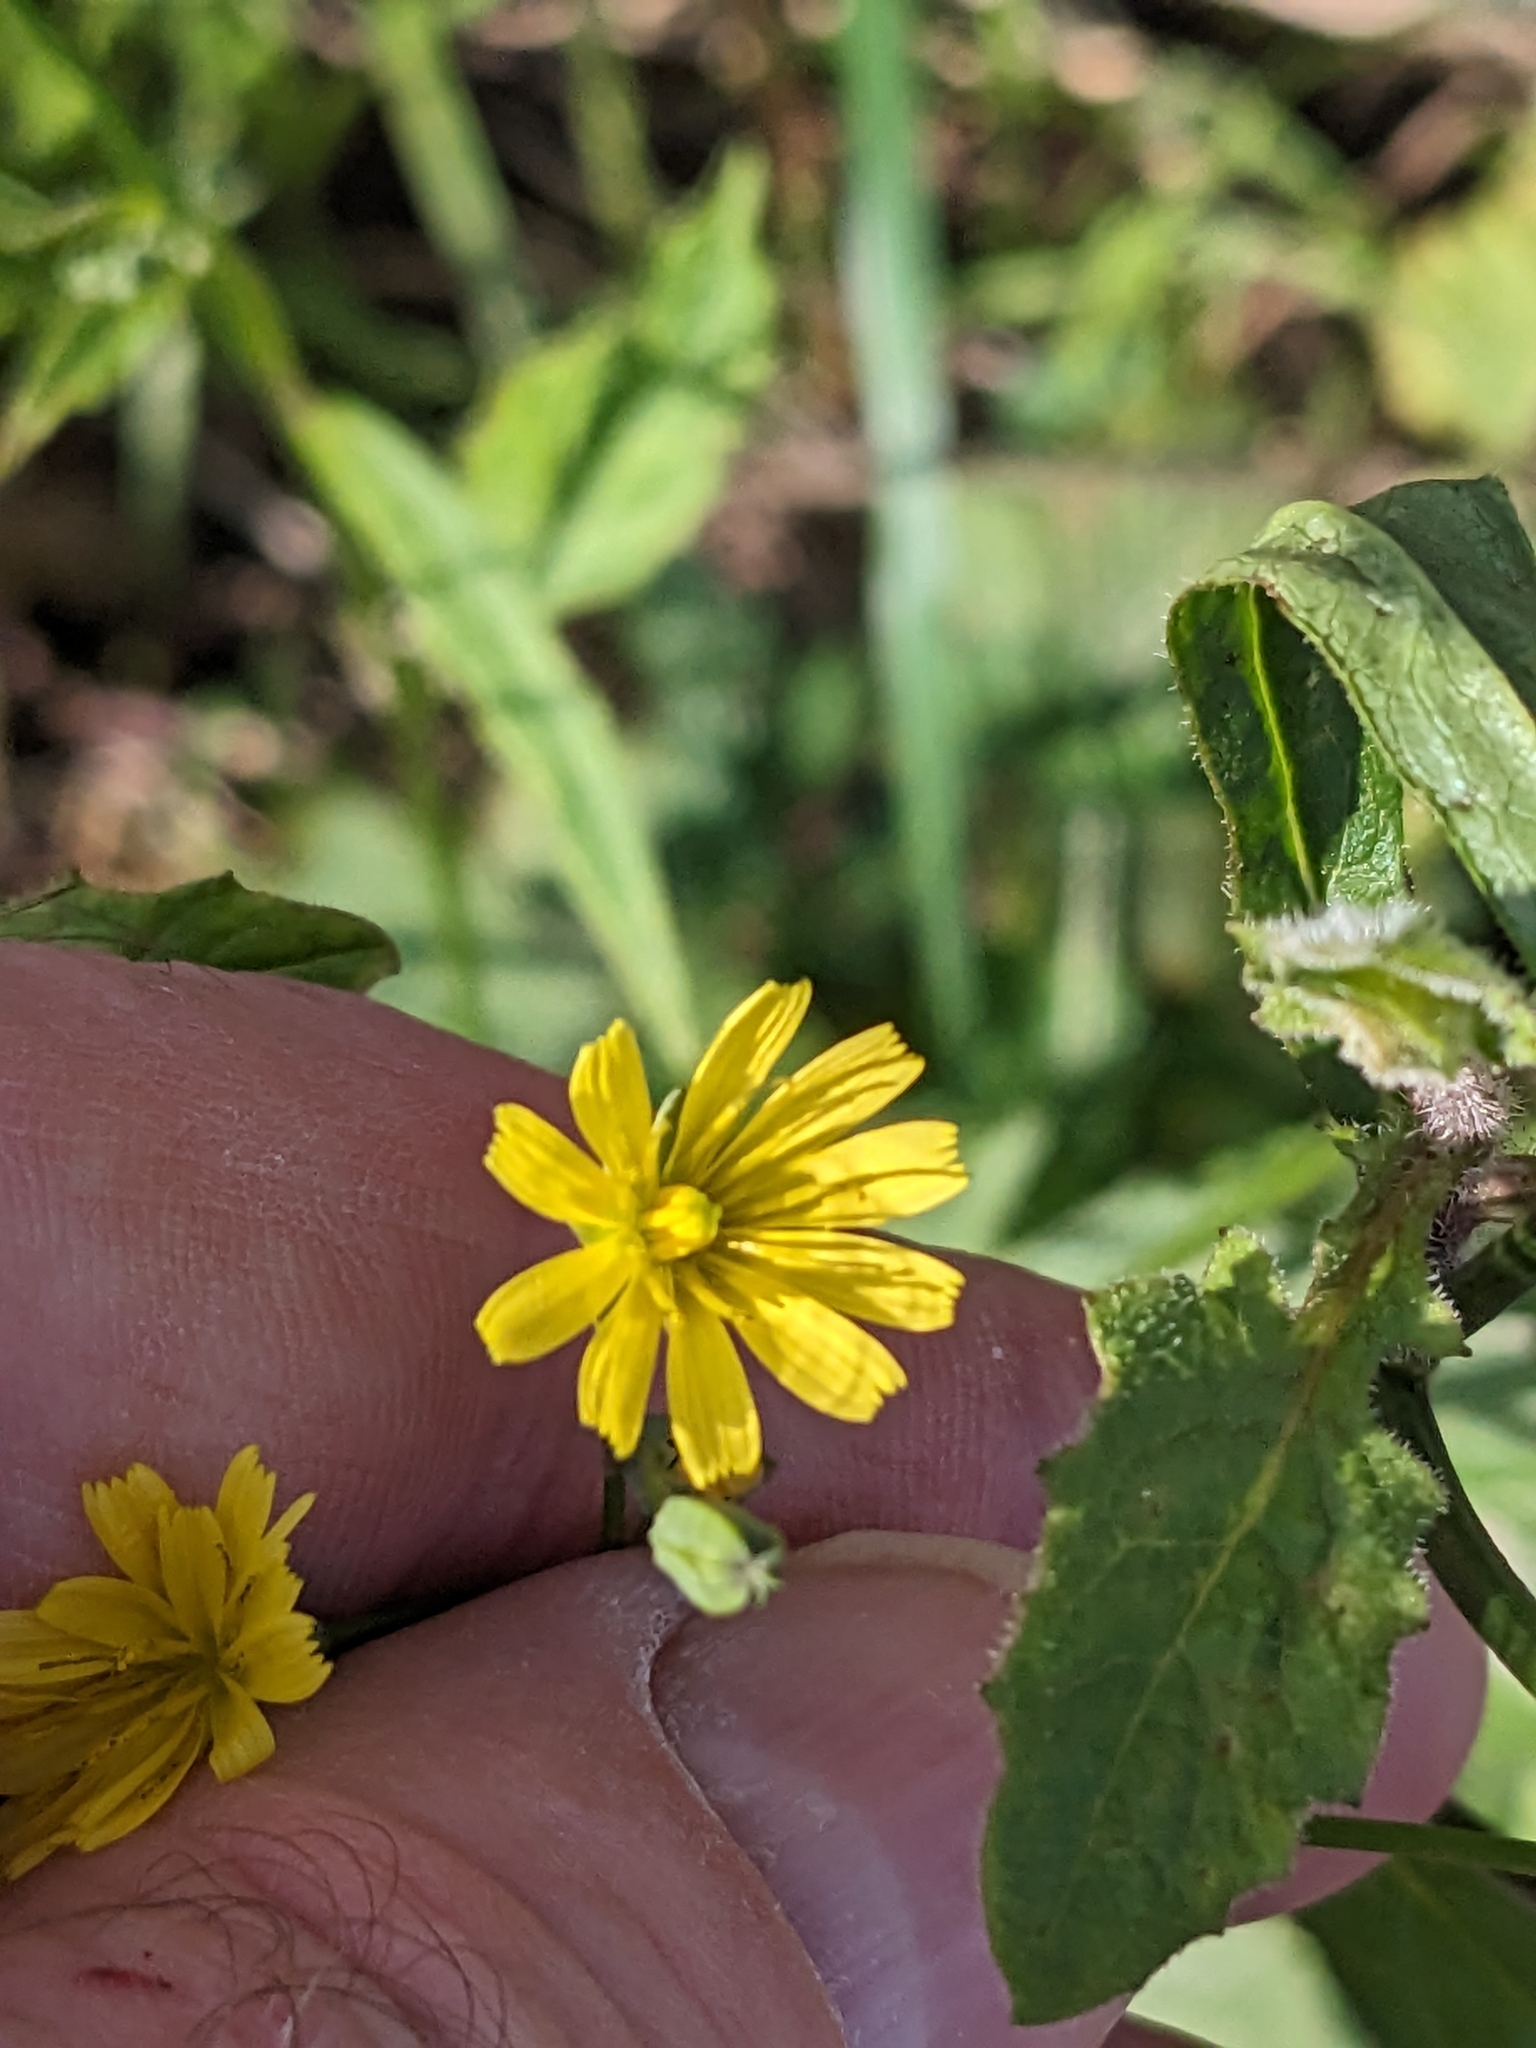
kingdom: Plantae
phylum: Tracheophyta
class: Magnoliopsida
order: Asterales
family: Asteraceae
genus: Lapsana
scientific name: Lapsana communis
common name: Nipplewort
